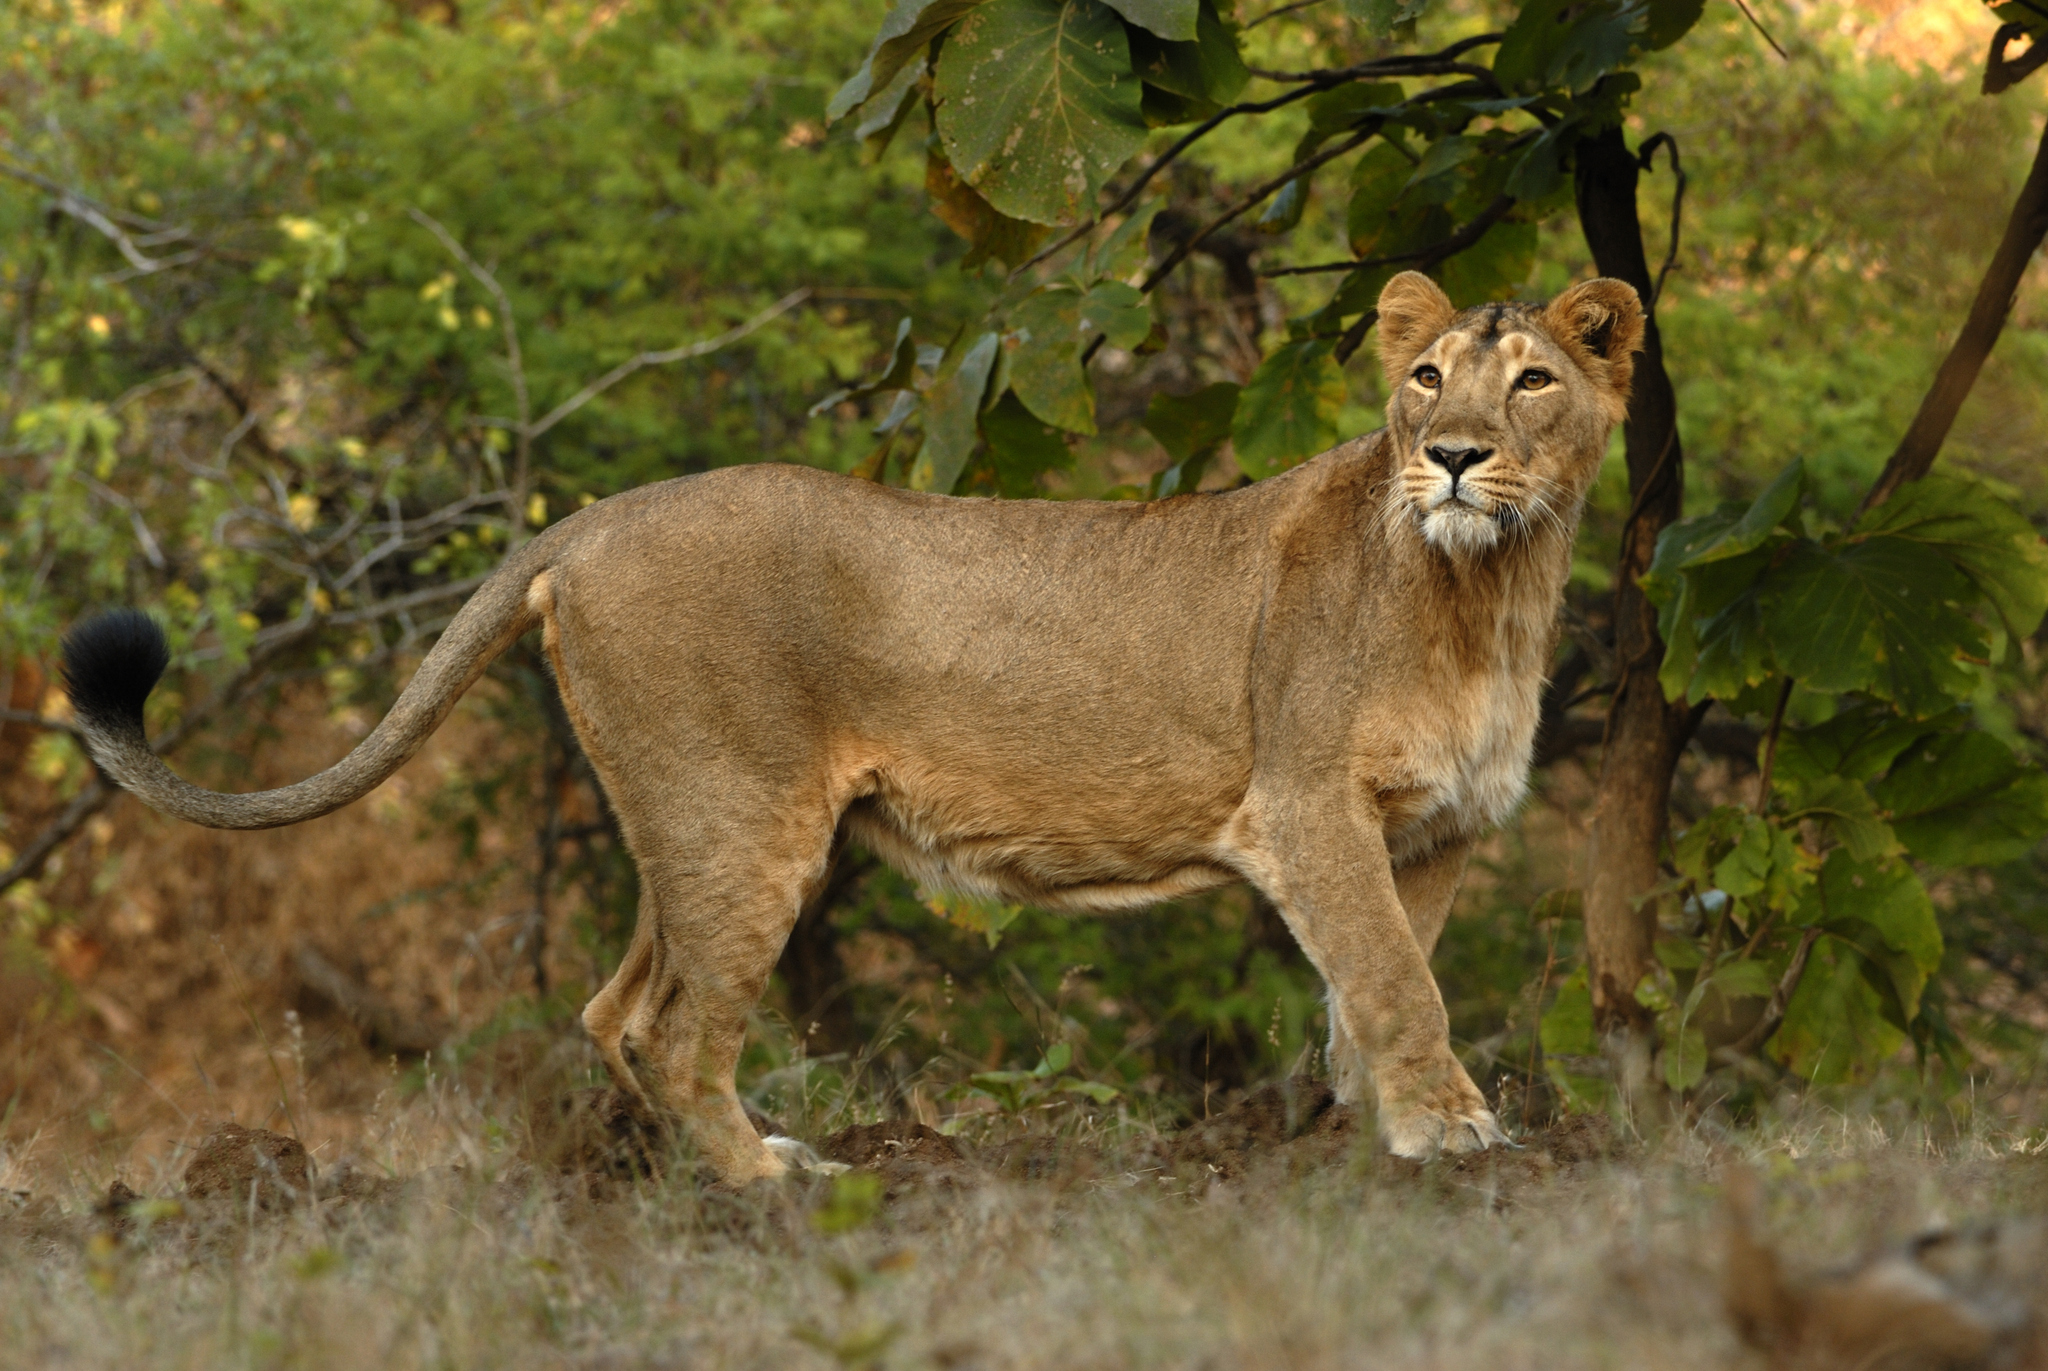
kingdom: Animalia
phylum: Chordata
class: Mammalia
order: Carnivora
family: Felidae
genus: Panthera
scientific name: Panthera leo
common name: Lion
